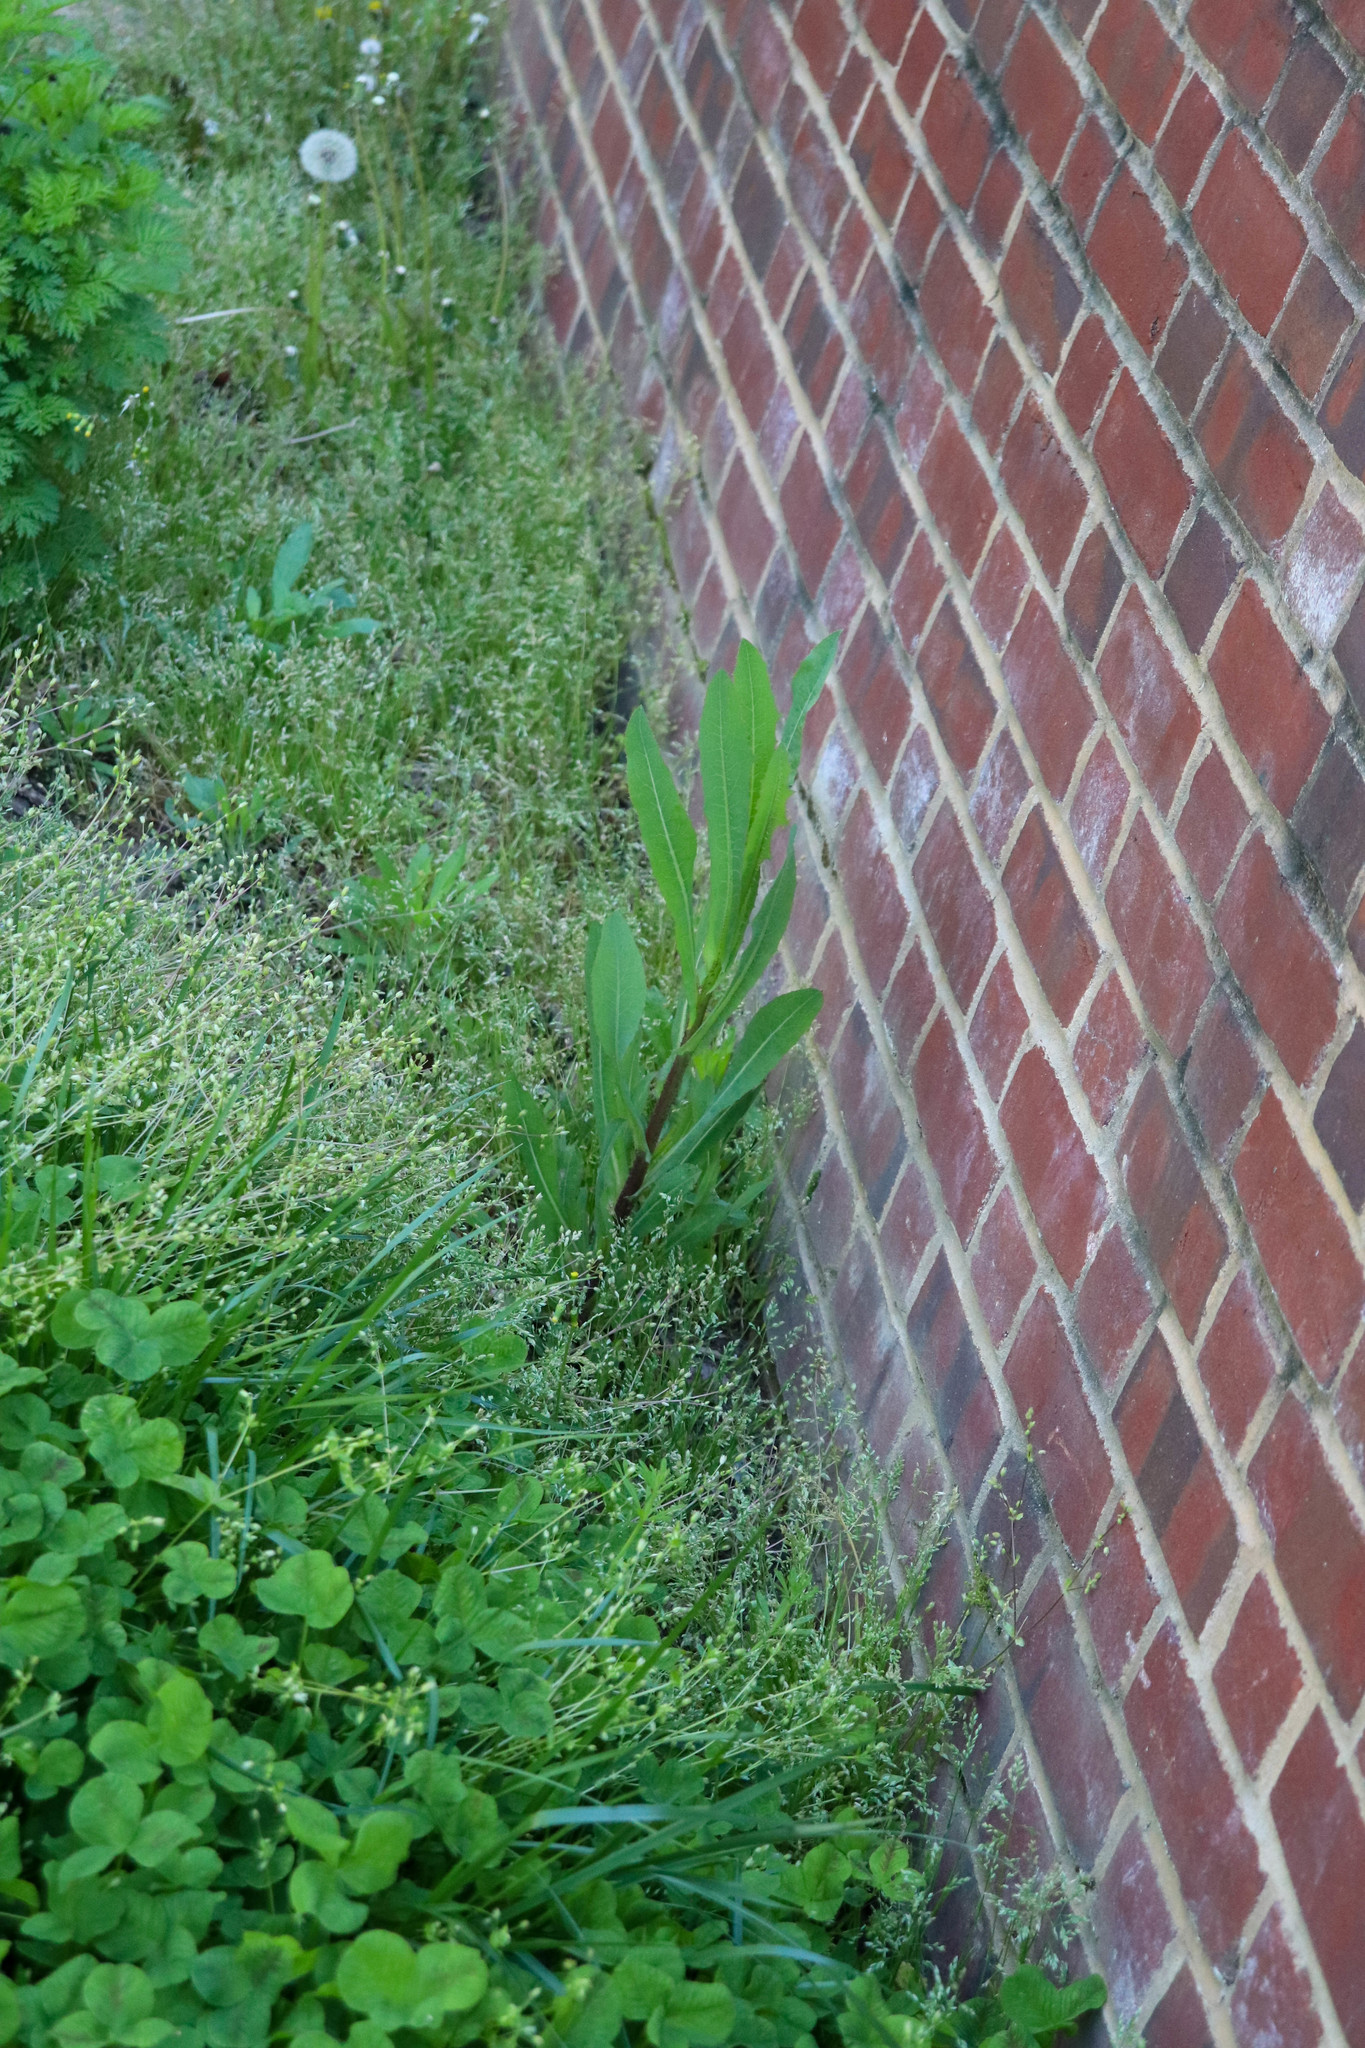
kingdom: Plantae
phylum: Tracheophyta
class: Magnoliopsida
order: Asterales
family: Asteraceae
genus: Lactuca
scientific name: Lactuca serriola
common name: Prickly lettuce
